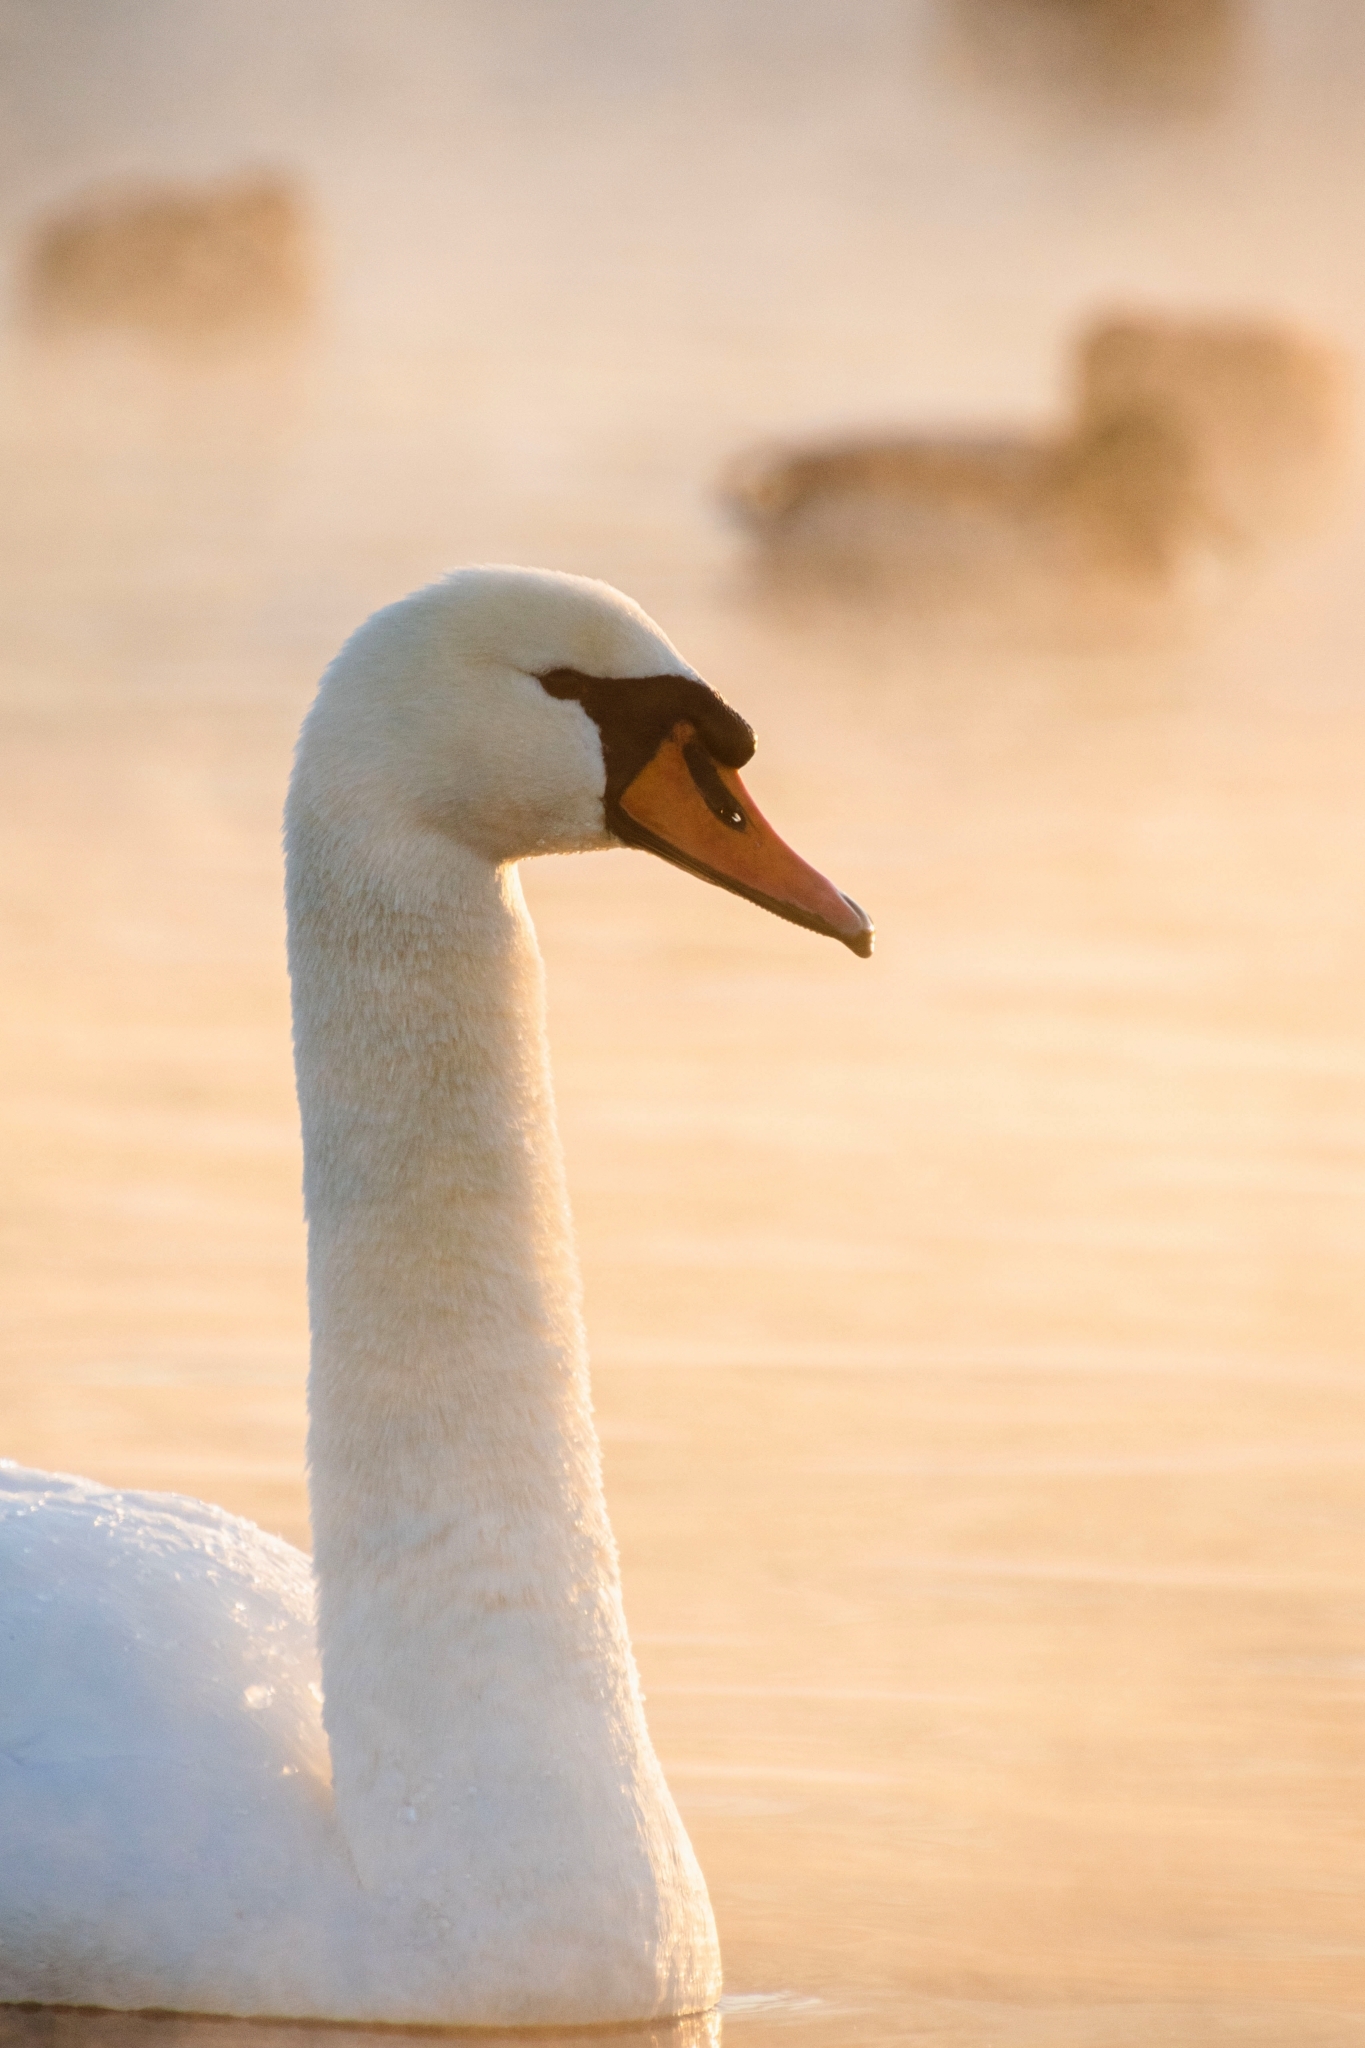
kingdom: Animalia
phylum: Chordata
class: Aves
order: Anseriformes
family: Anatidae
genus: Cygnus
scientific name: Cygnus olor
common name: Mute swan
